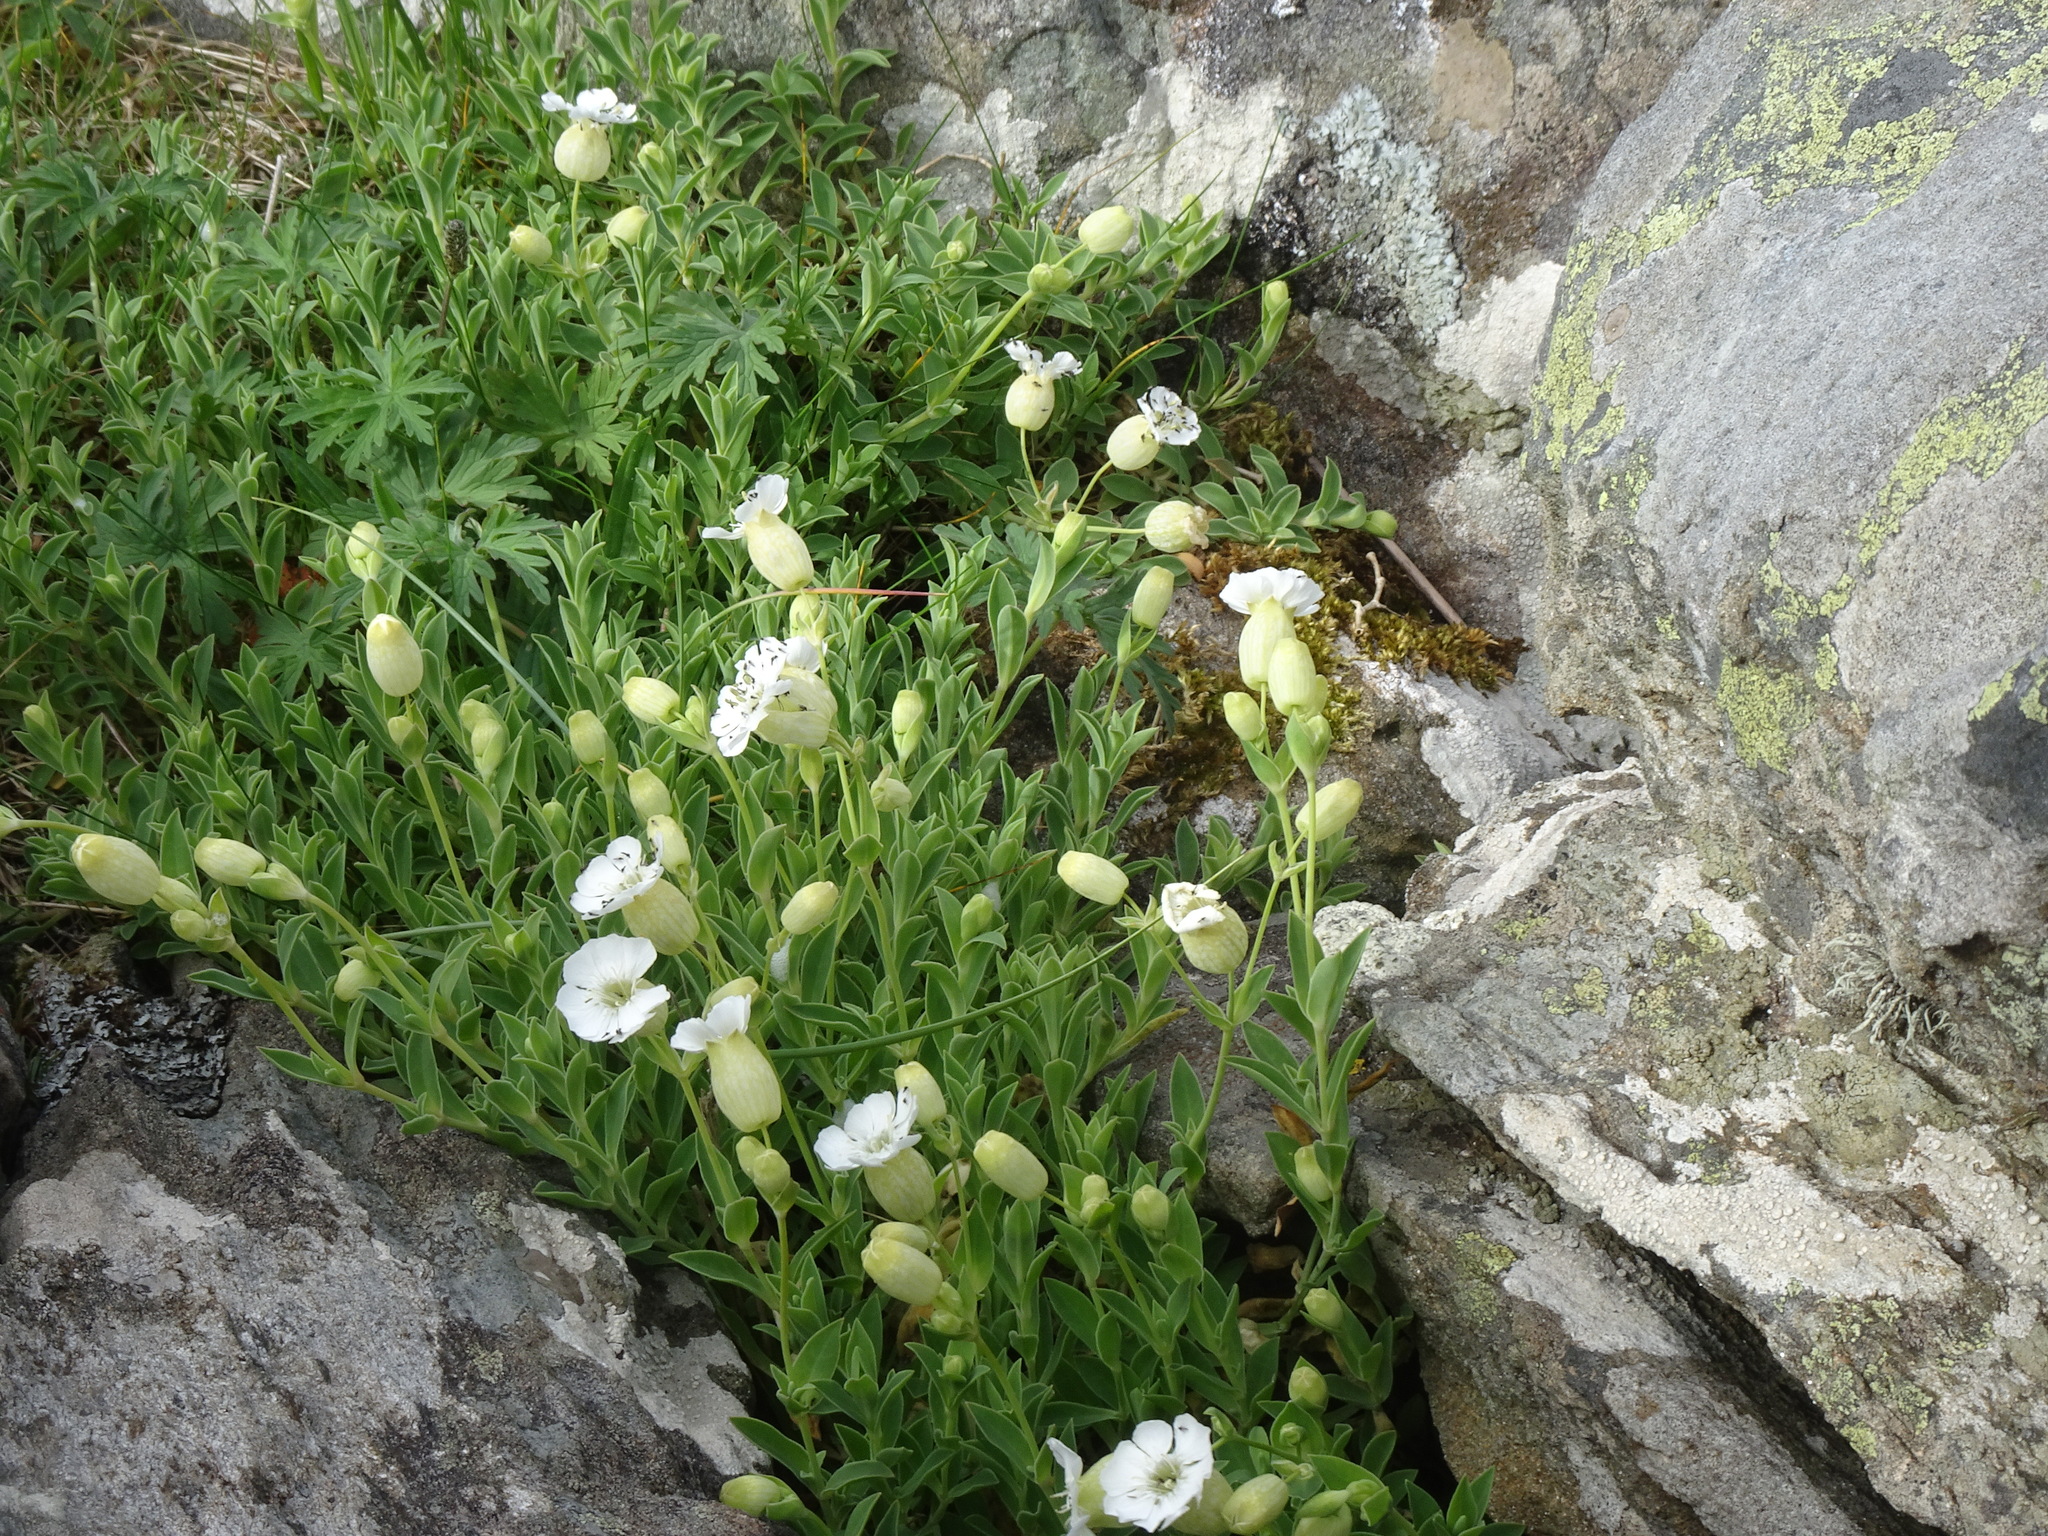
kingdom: Plantae
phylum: Tracheophyta
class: Magnoliopsida
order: Caryophyllales
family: Caryophyllaceae
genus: Silene
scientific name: Silene uniflora
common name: Sea campion
